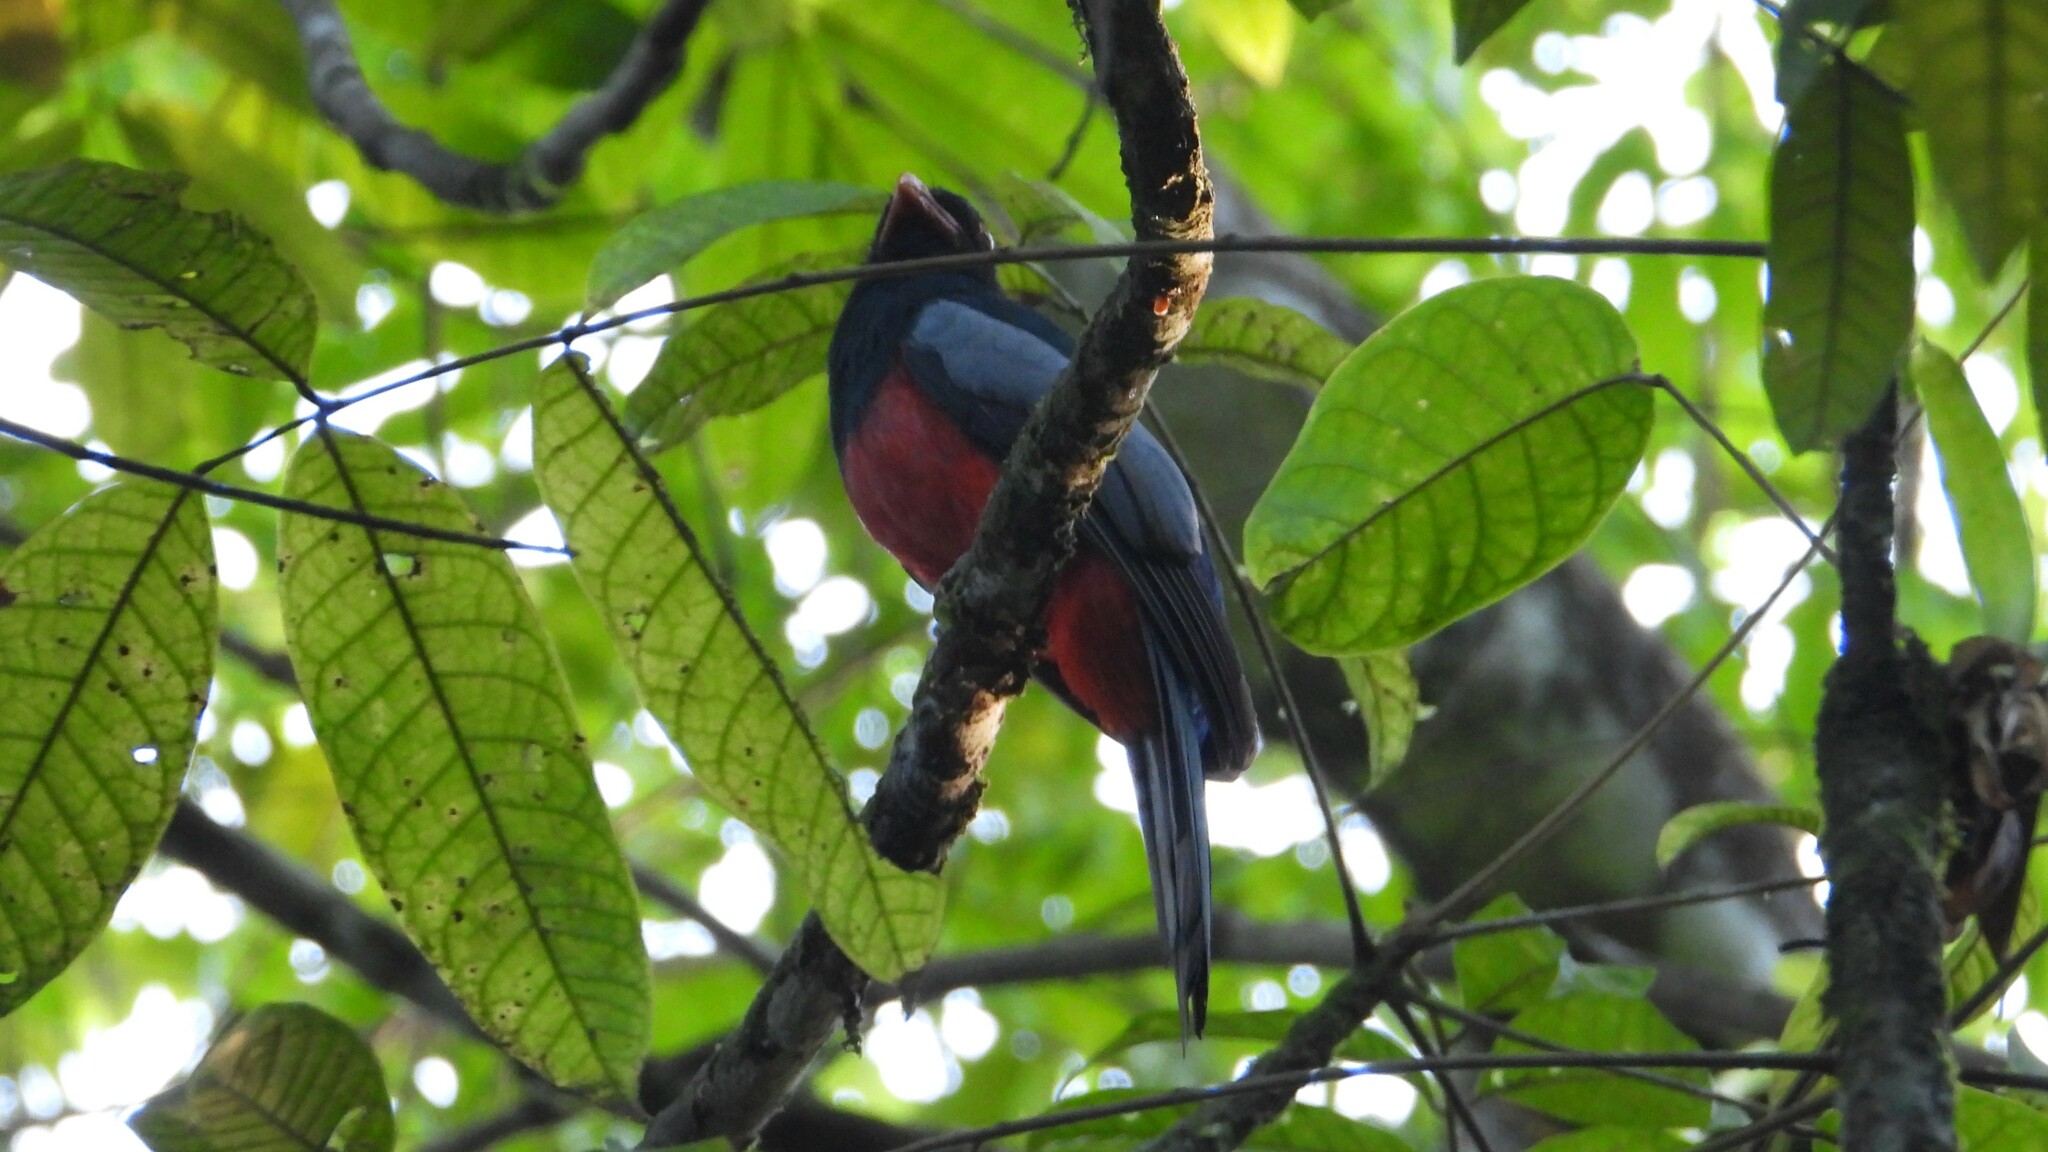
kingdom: Animalia
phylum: Chordata
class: Aves
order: Trogoniformes
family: Trogonidae
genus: Trogon
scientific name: Trogon massena
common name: Slaty-tailed trogon
